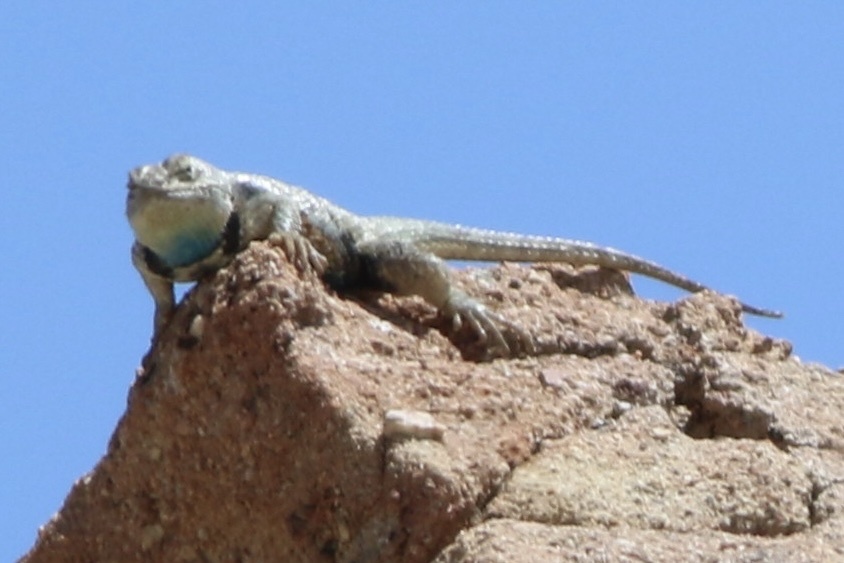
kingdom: Animalia
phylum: Chordata
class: Squamata
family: Phrynosomatidae
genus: Sceloporus
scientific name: Sceloporus uniformis
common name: Yellow-backed spiny lizard
